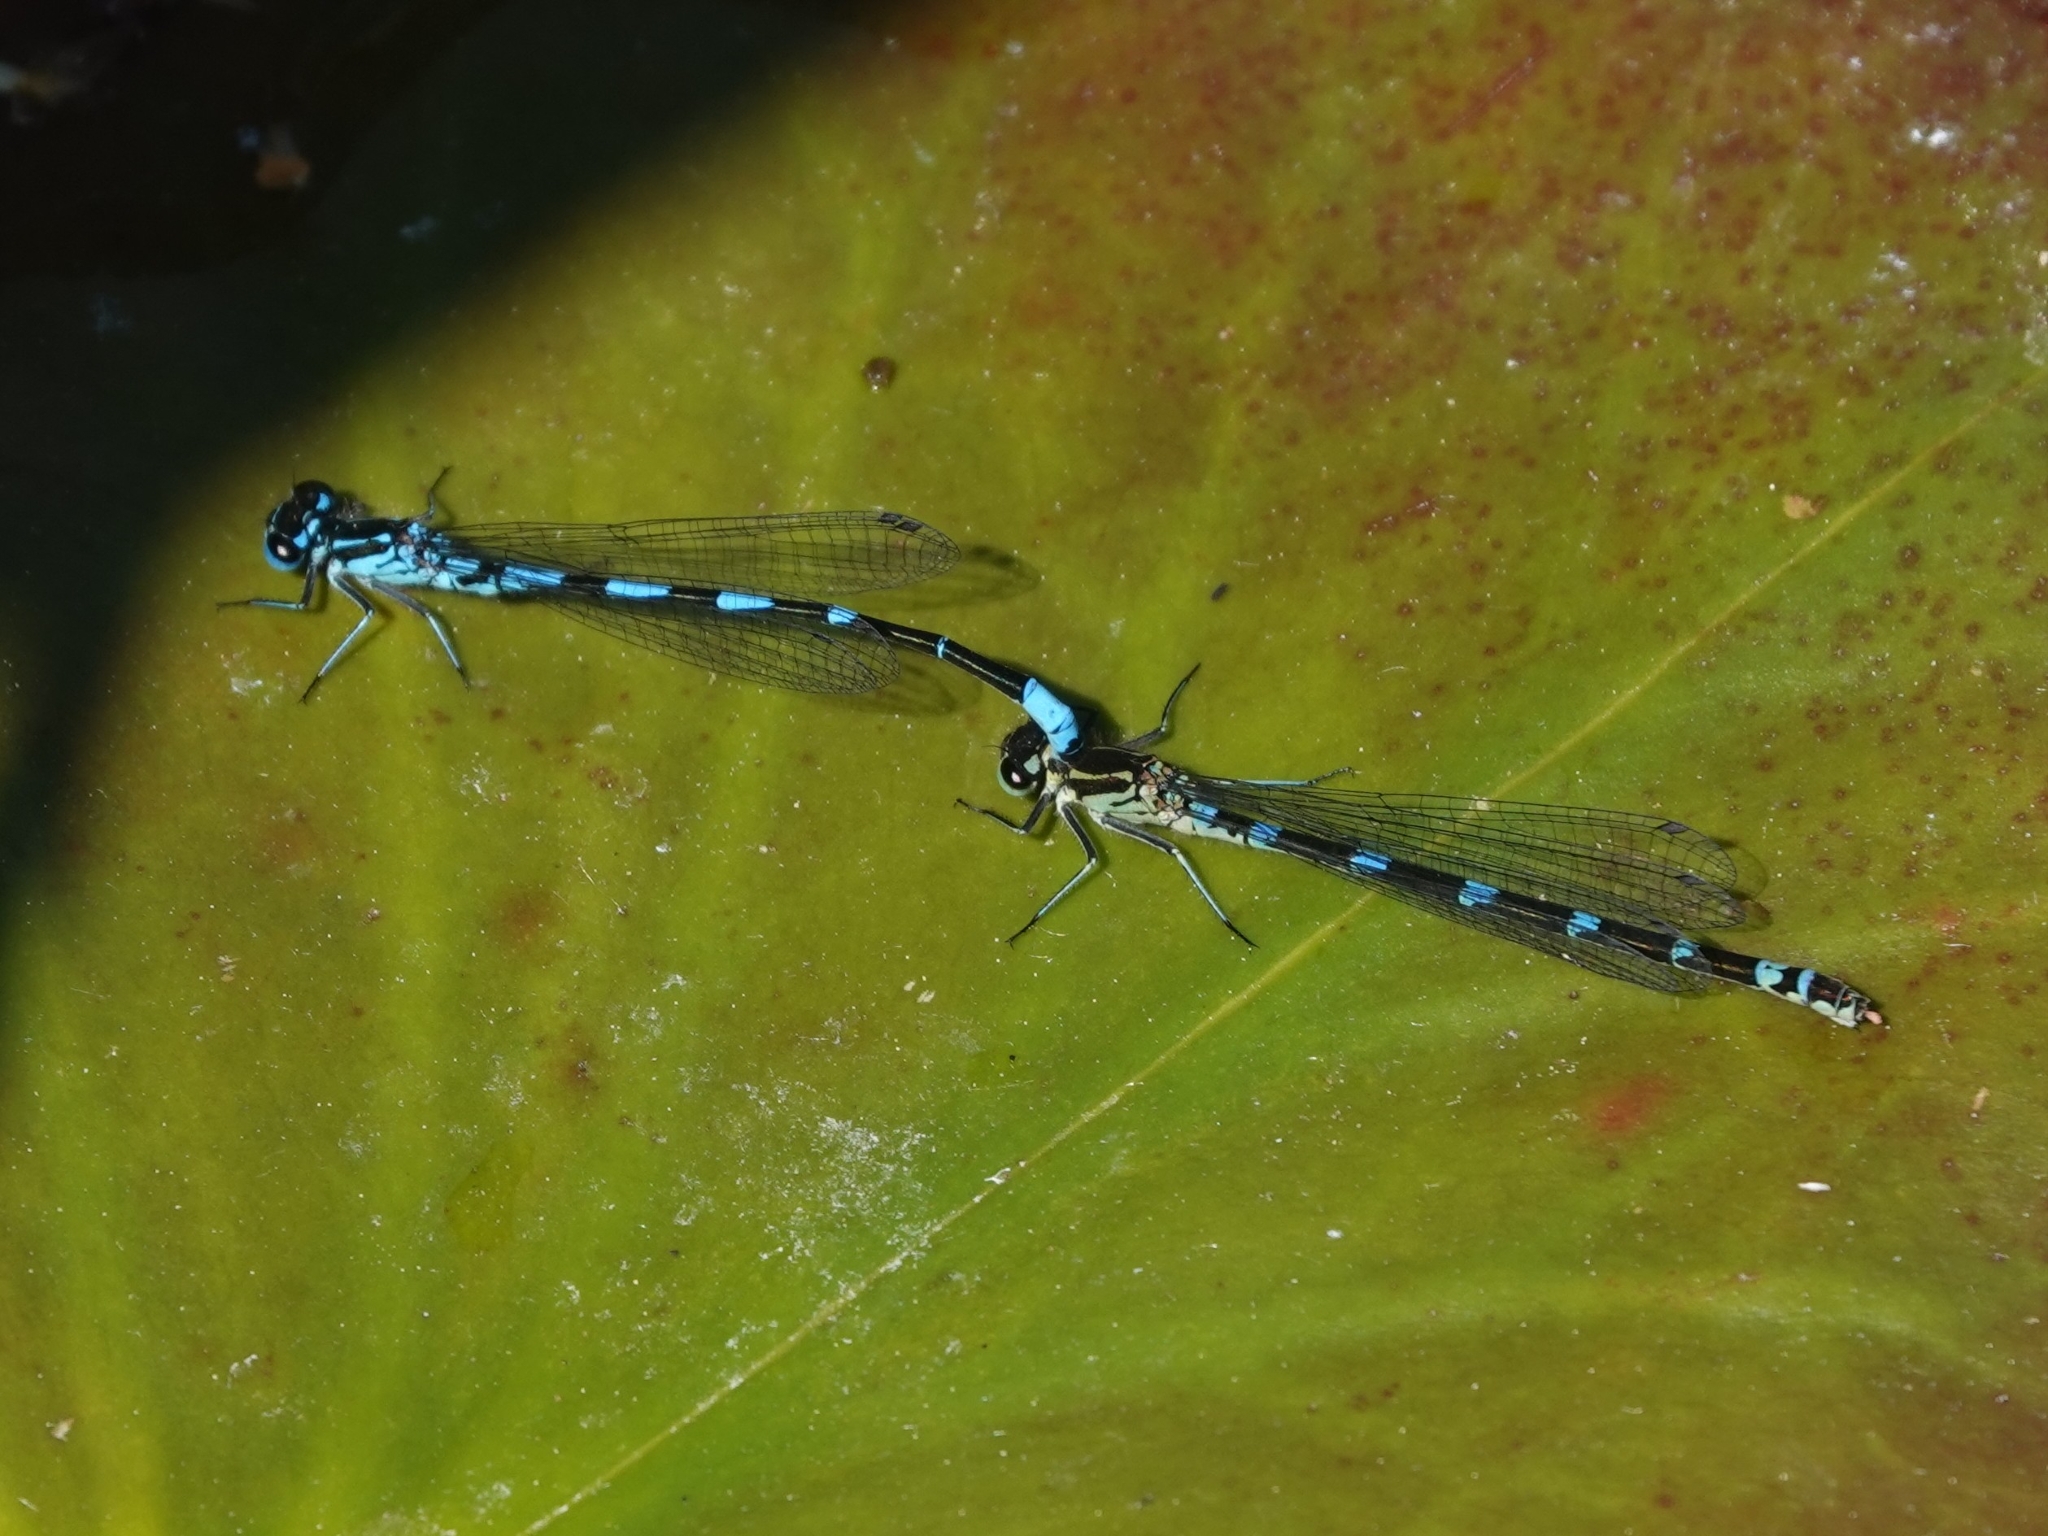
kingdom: Animalia
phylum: Arthropoda
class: Insecta
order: Odonata
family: Coenagrionidae
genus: Coenagrion
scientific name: Coenagrion pulchellum
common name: Variable bluet
